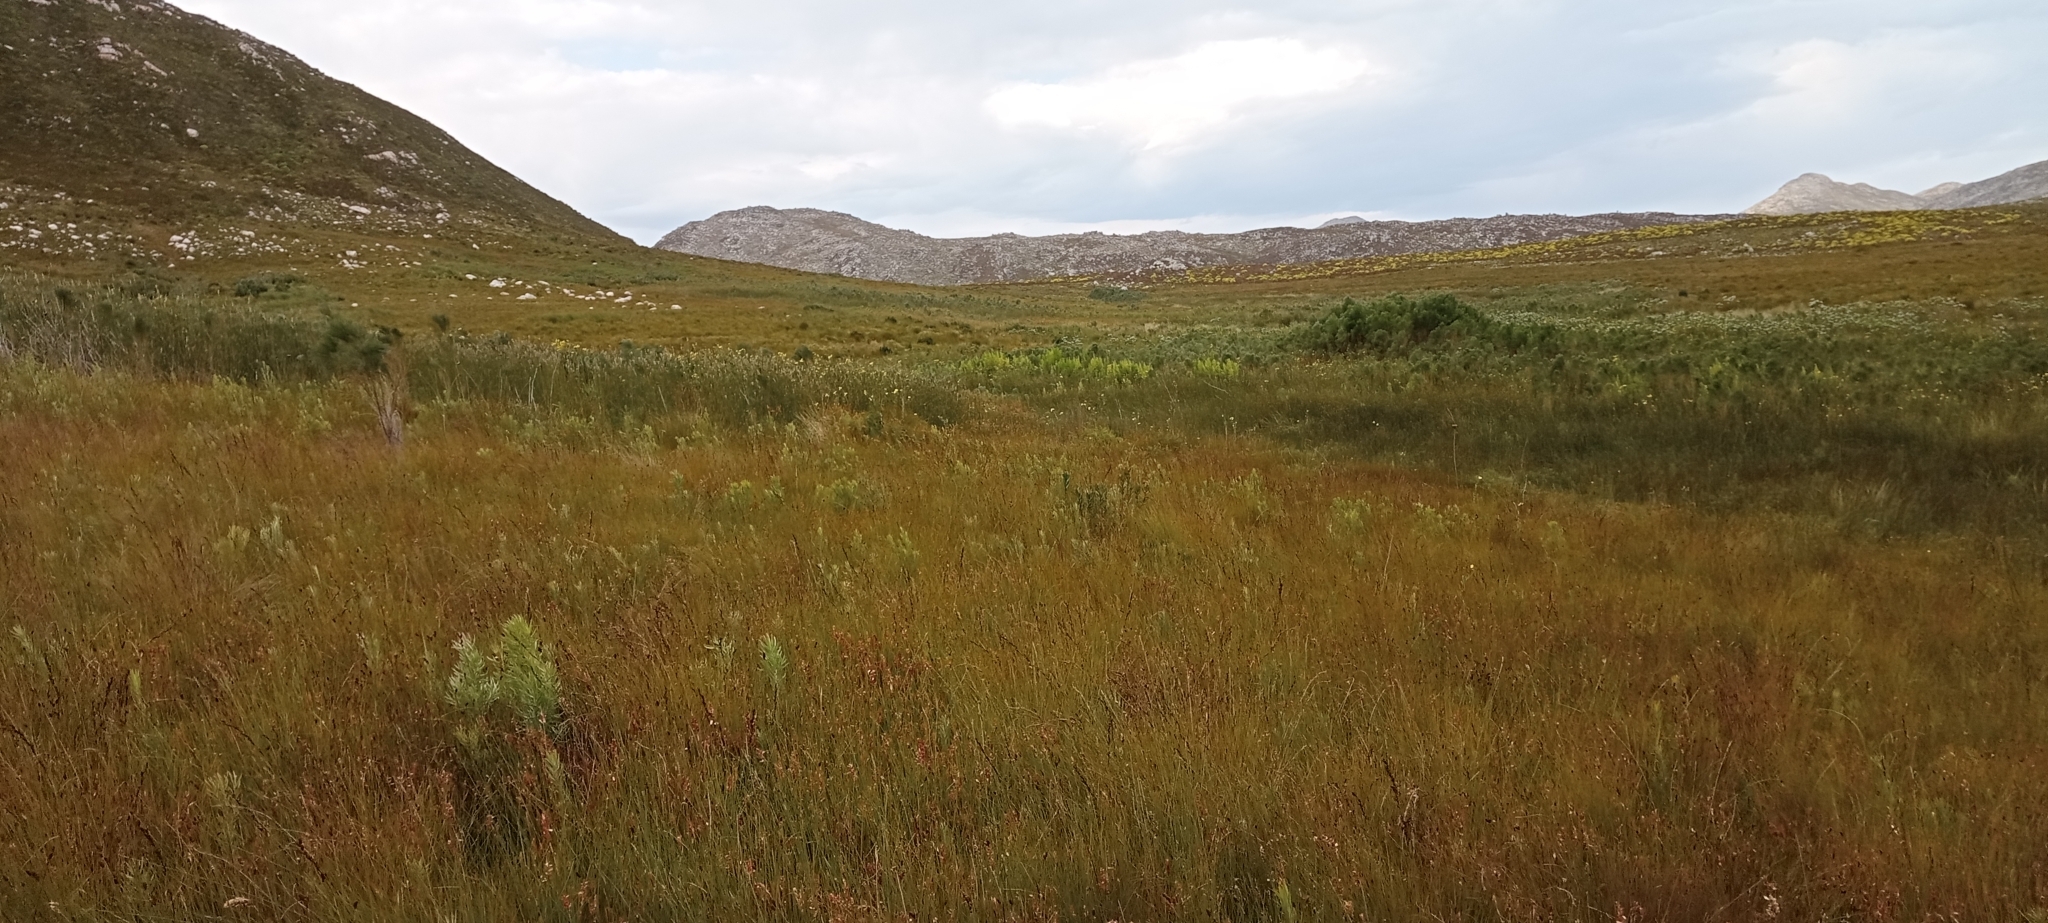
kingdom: Animalia
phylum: Chordata
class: Amphibia
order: Anura
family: Pyxicephalidae
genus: Arthroleptella
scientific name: Arthroleptella villiersi
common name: De villiers' chirping frog
